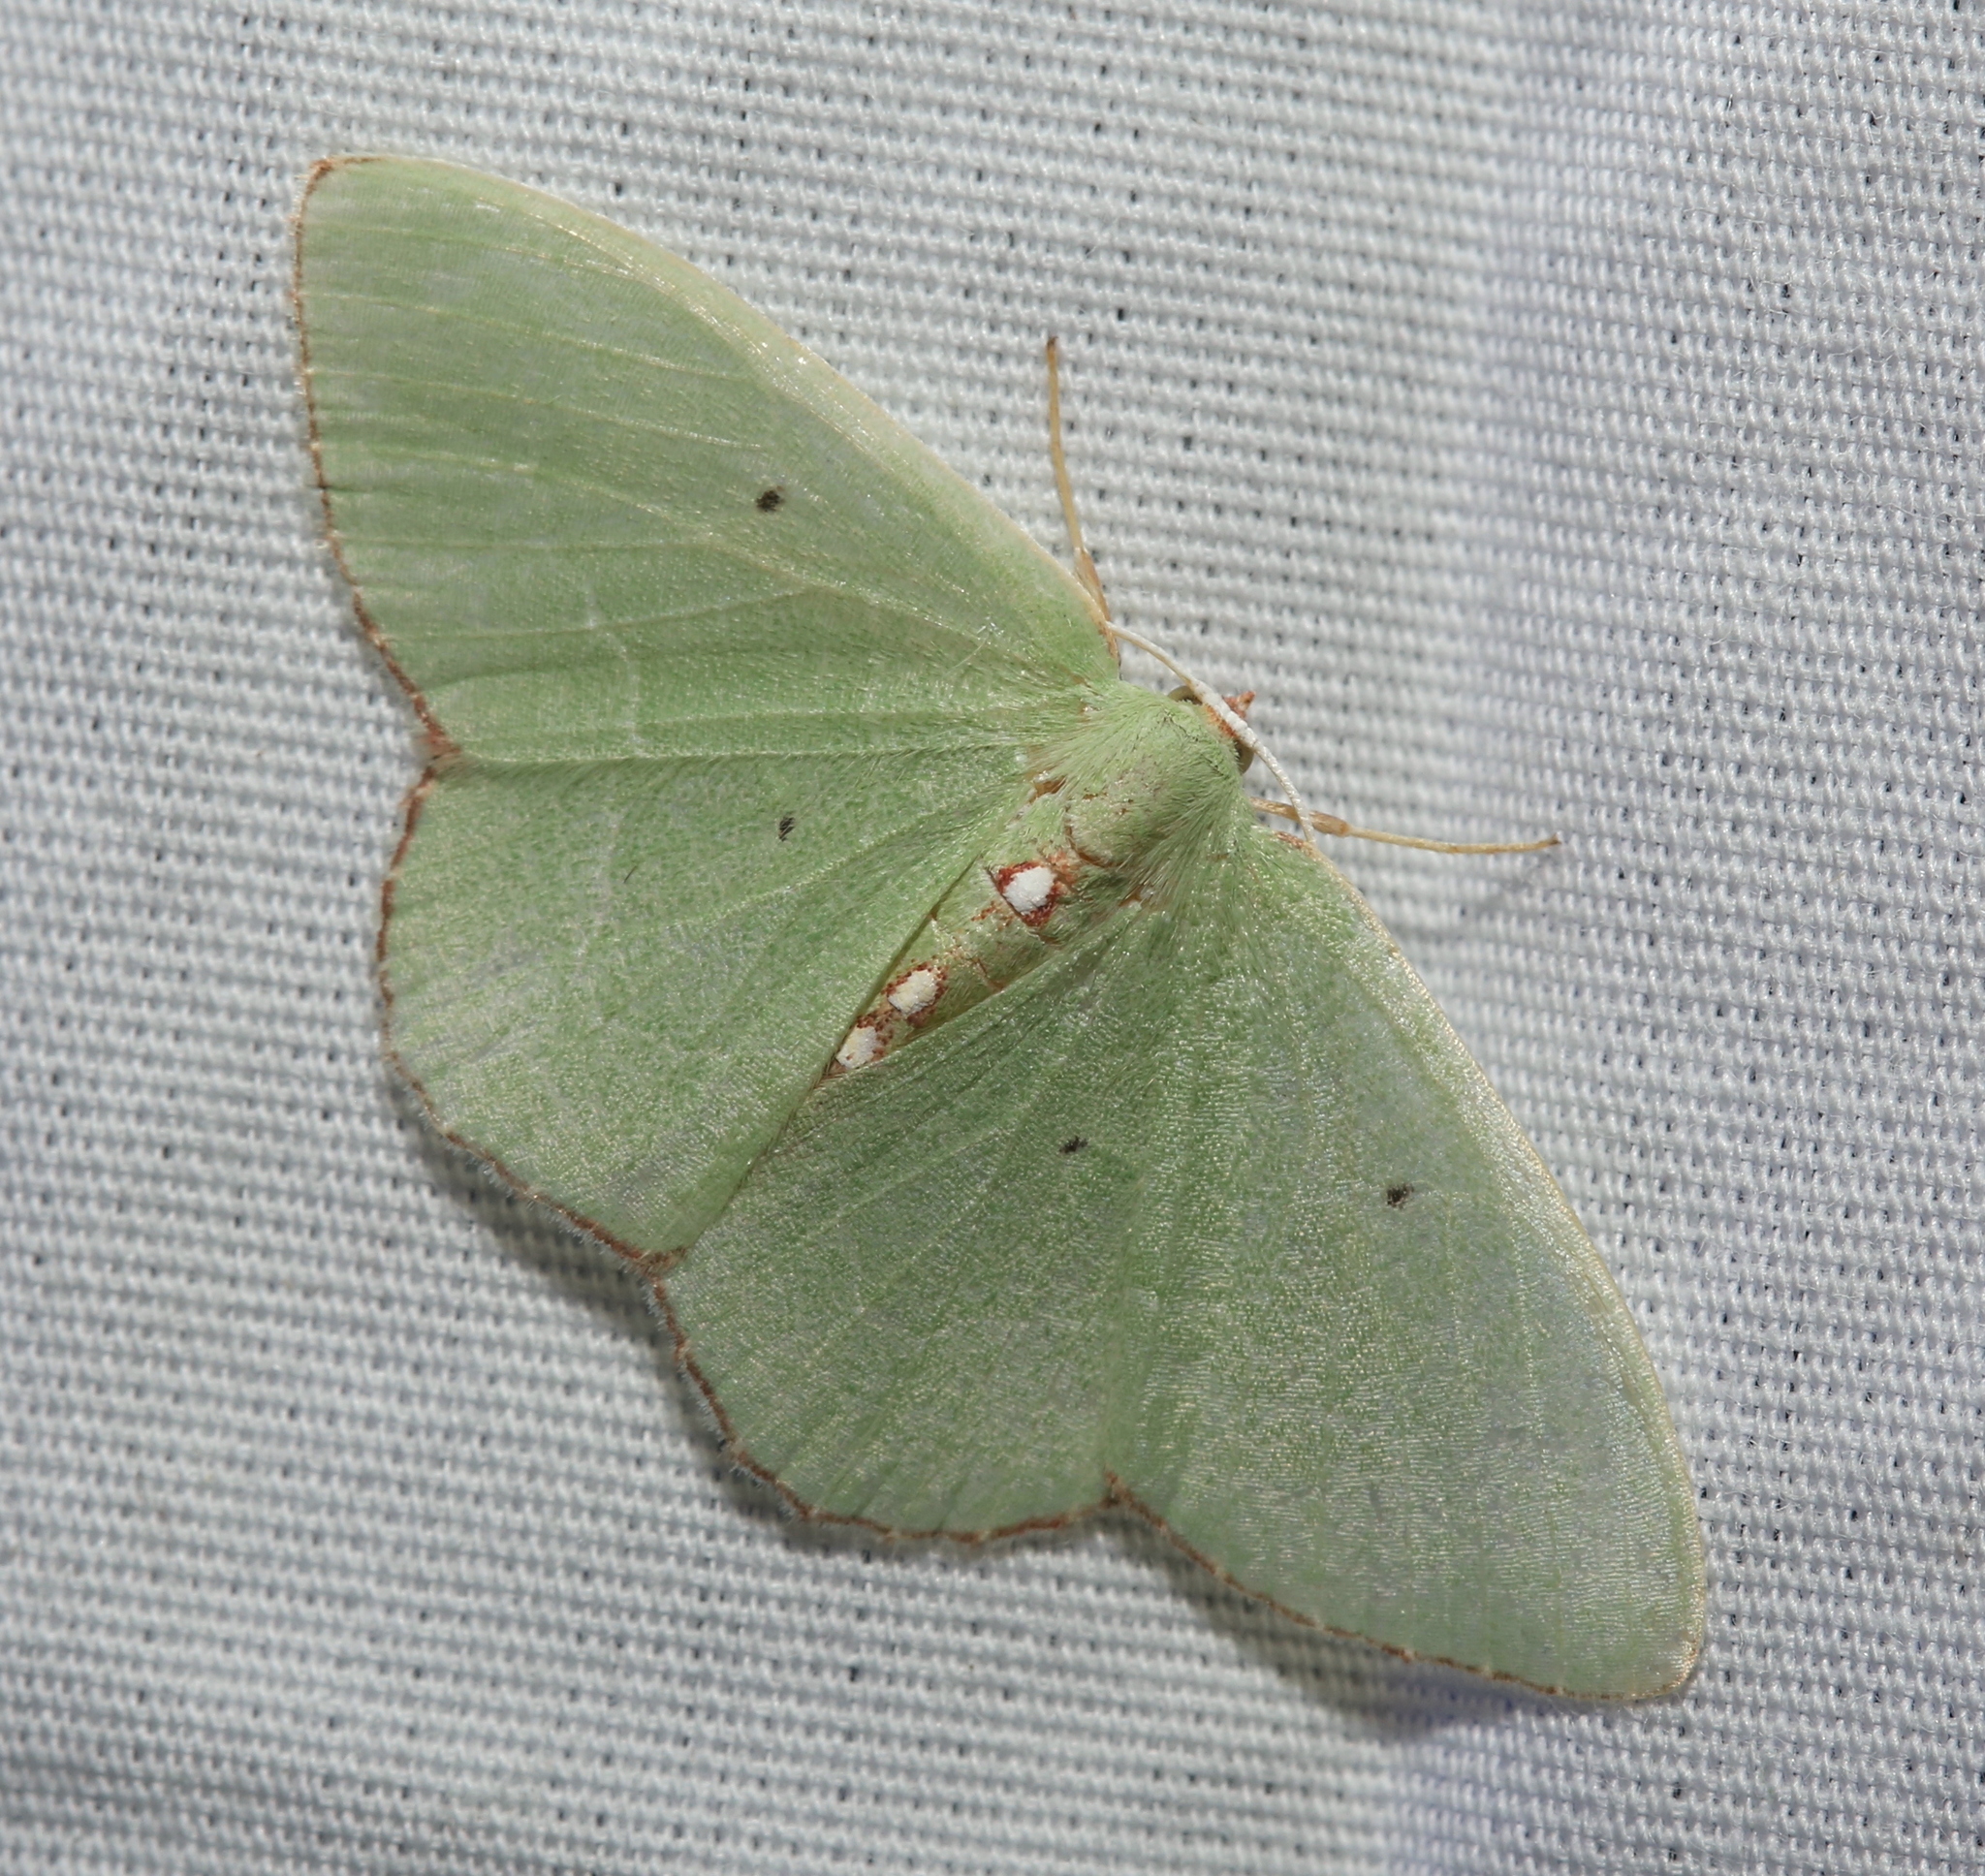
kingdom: Animalia
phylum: Arthropoda
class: Insecta
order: Lepidoptera
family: Geometridae
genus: Nemoria
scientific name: Nemoria lixaria
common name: Red-bordered emerald
